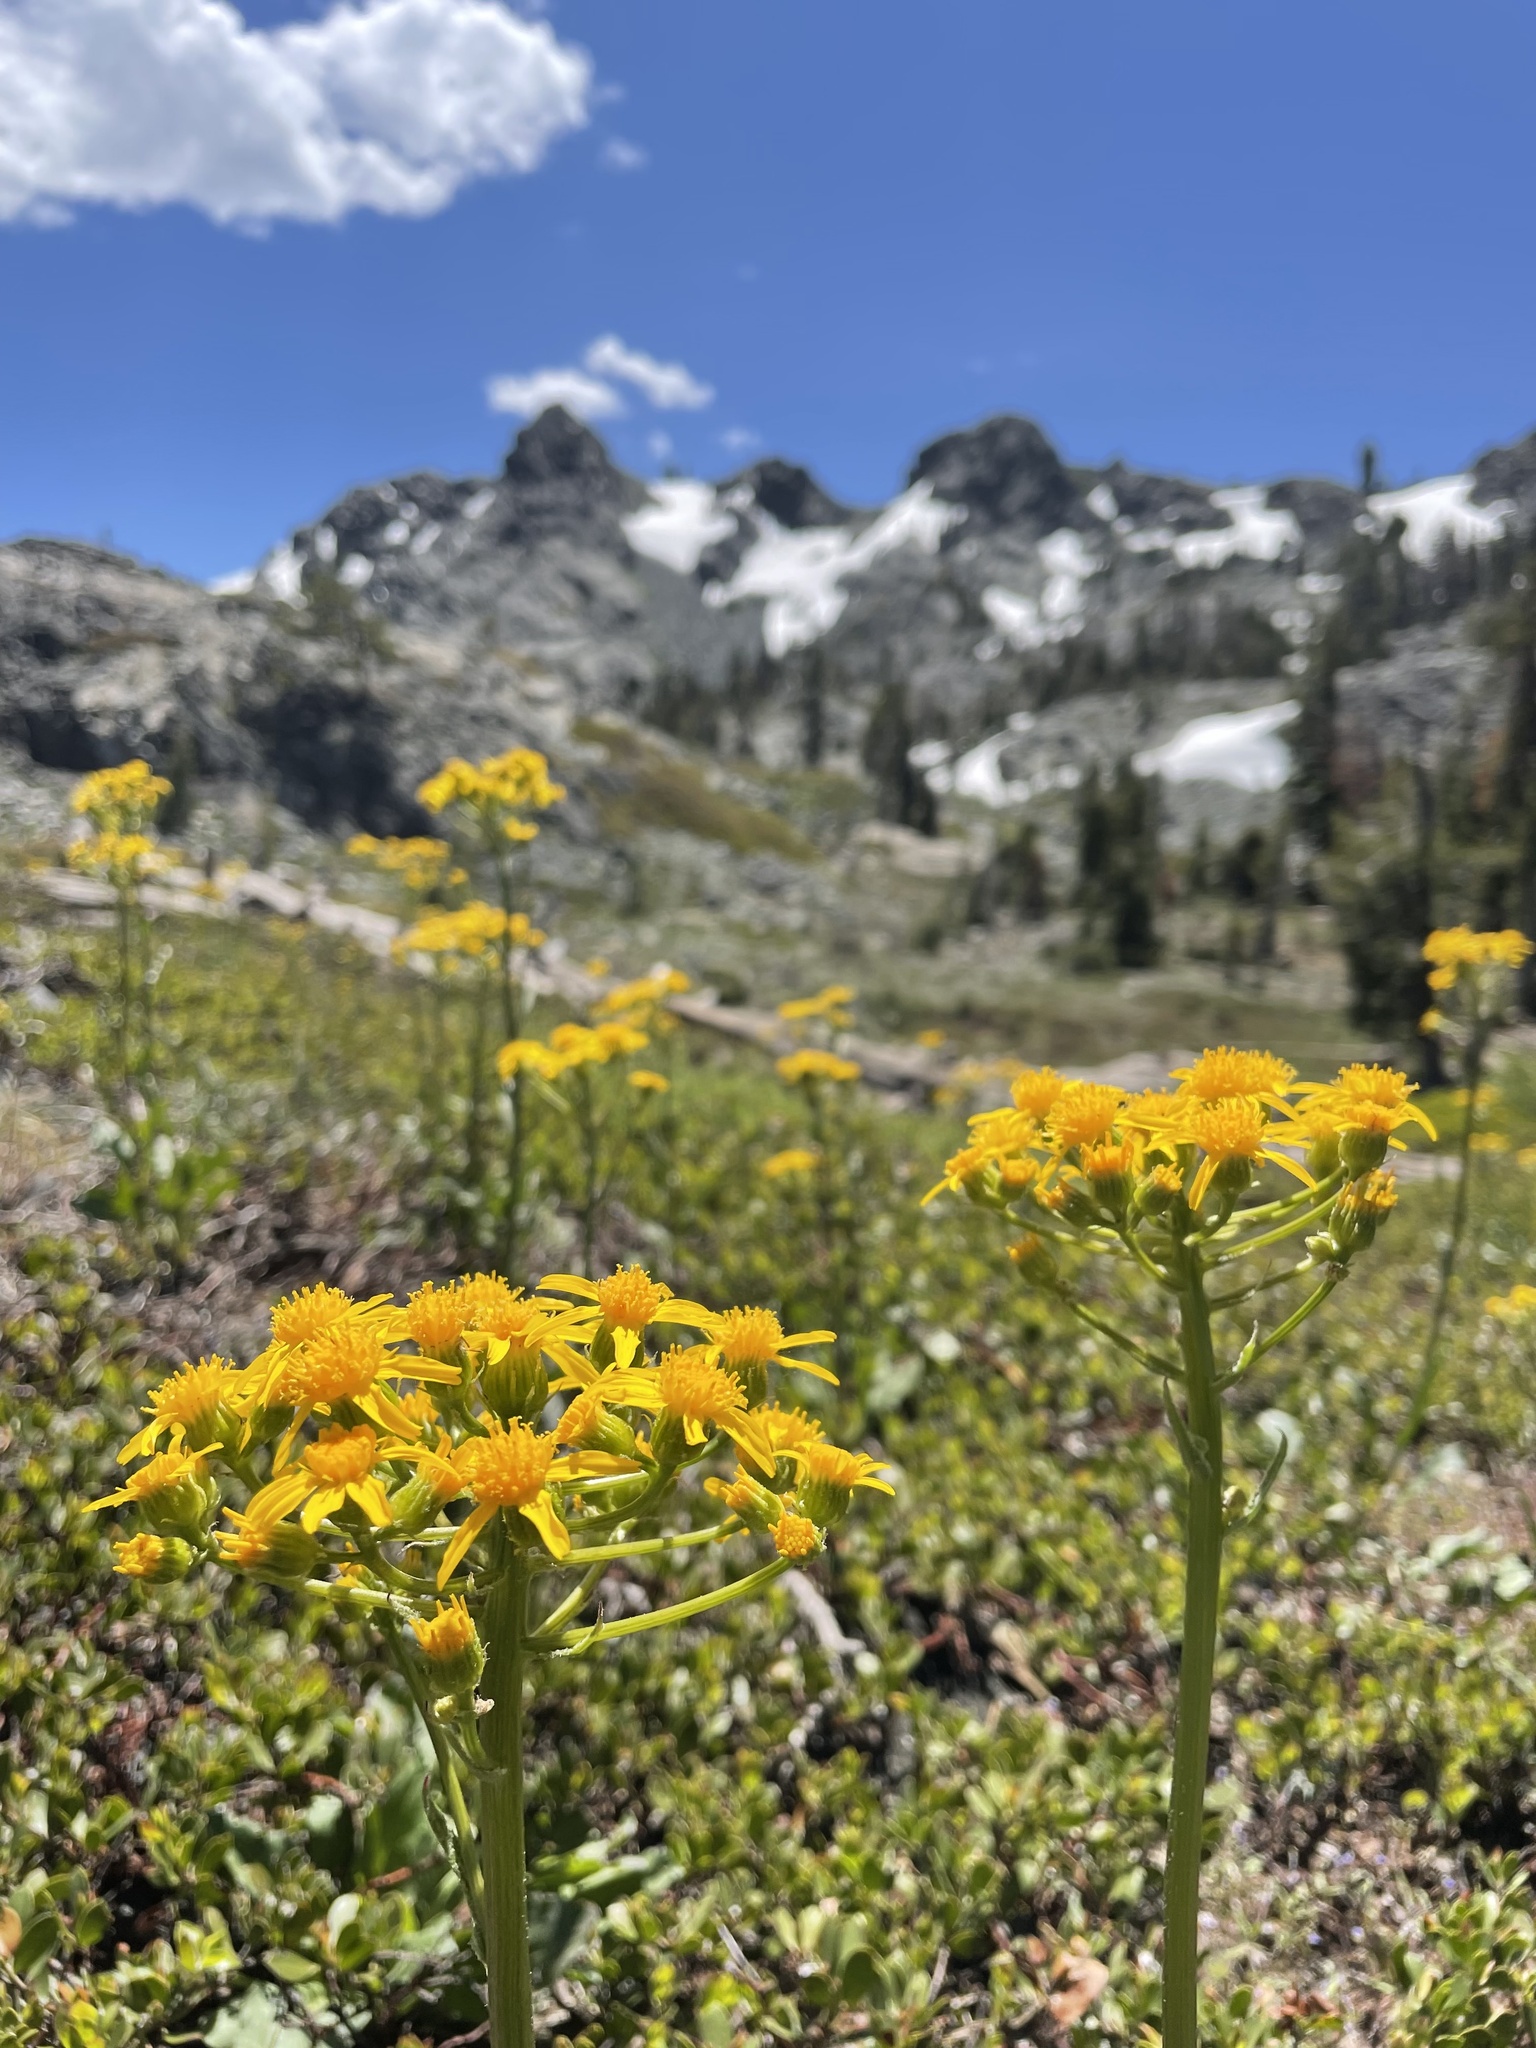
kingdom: Plantae
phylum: Tracheophyta
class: Magnoliopsida
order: Asterales
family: Asteraceae
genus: Senecio
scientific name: Senecio integerrimus
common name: Gaugeplant
